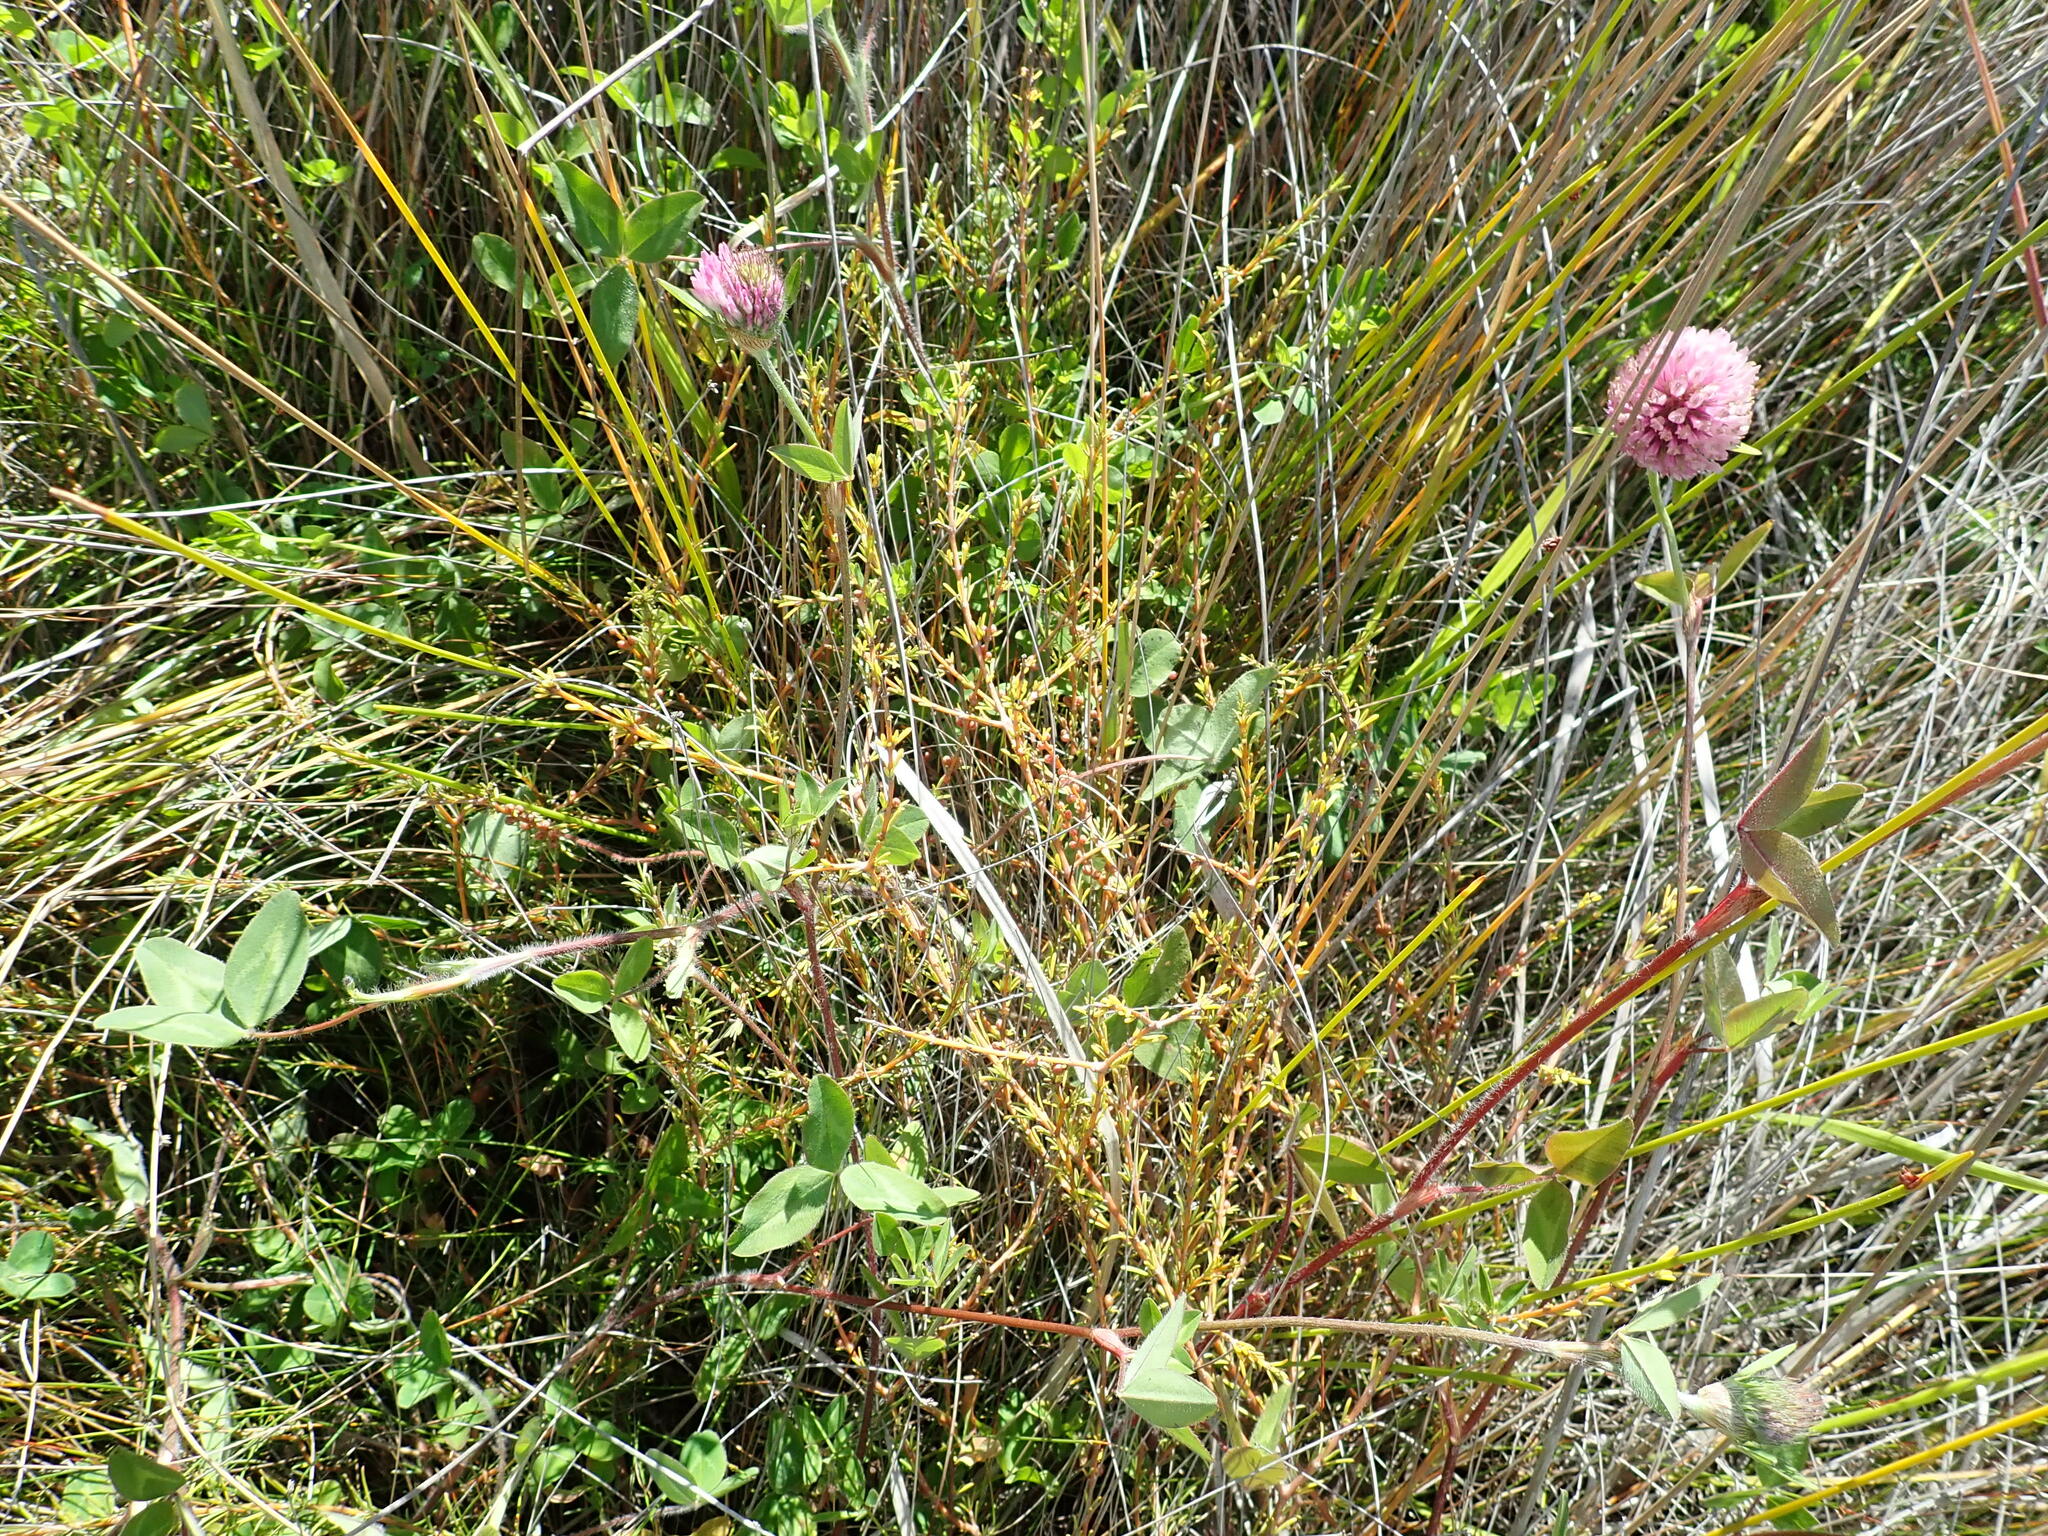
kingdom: Plantae
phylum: Tracheophyta
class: Magnoliopsida
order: Fabales
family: Fabaceae
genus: Trifolium
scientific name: Trifolium pratense
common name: Red clover
